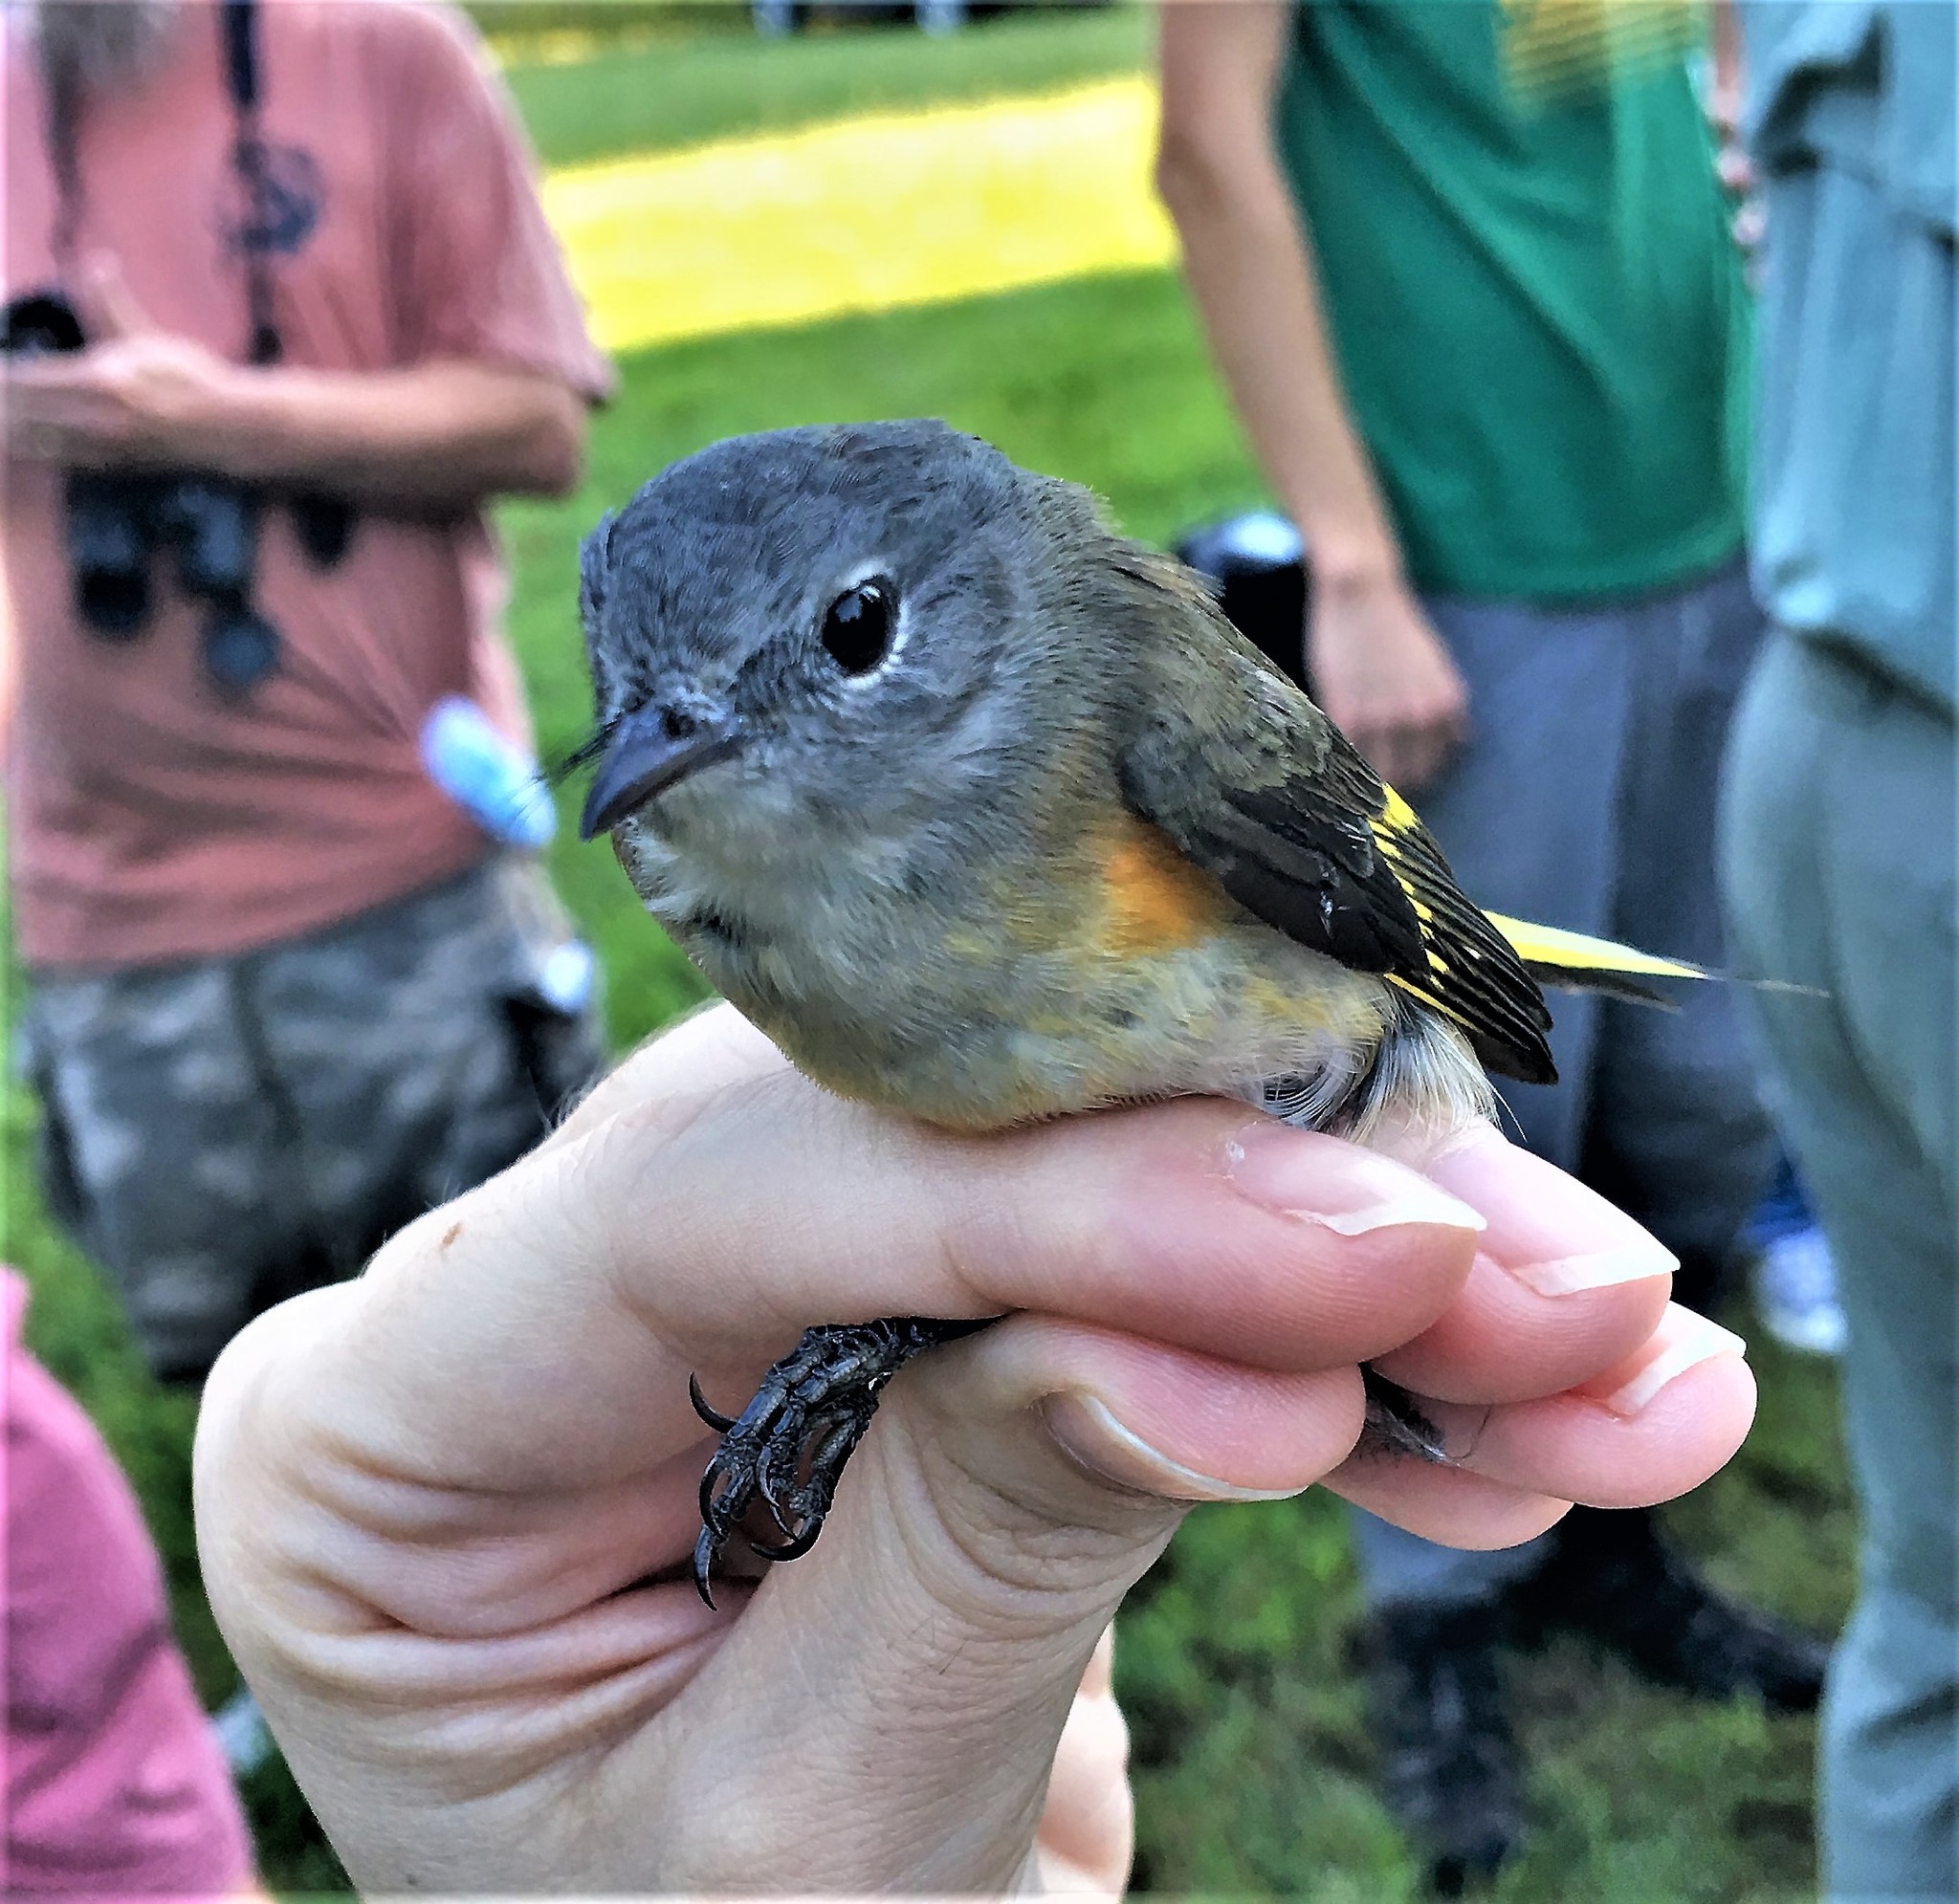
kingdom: Animalia
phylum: Chordata
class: Aves
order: Passeriformes
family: Parulidae
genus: Setophaga
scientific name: Setophaga ruticilla
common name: American redstart
